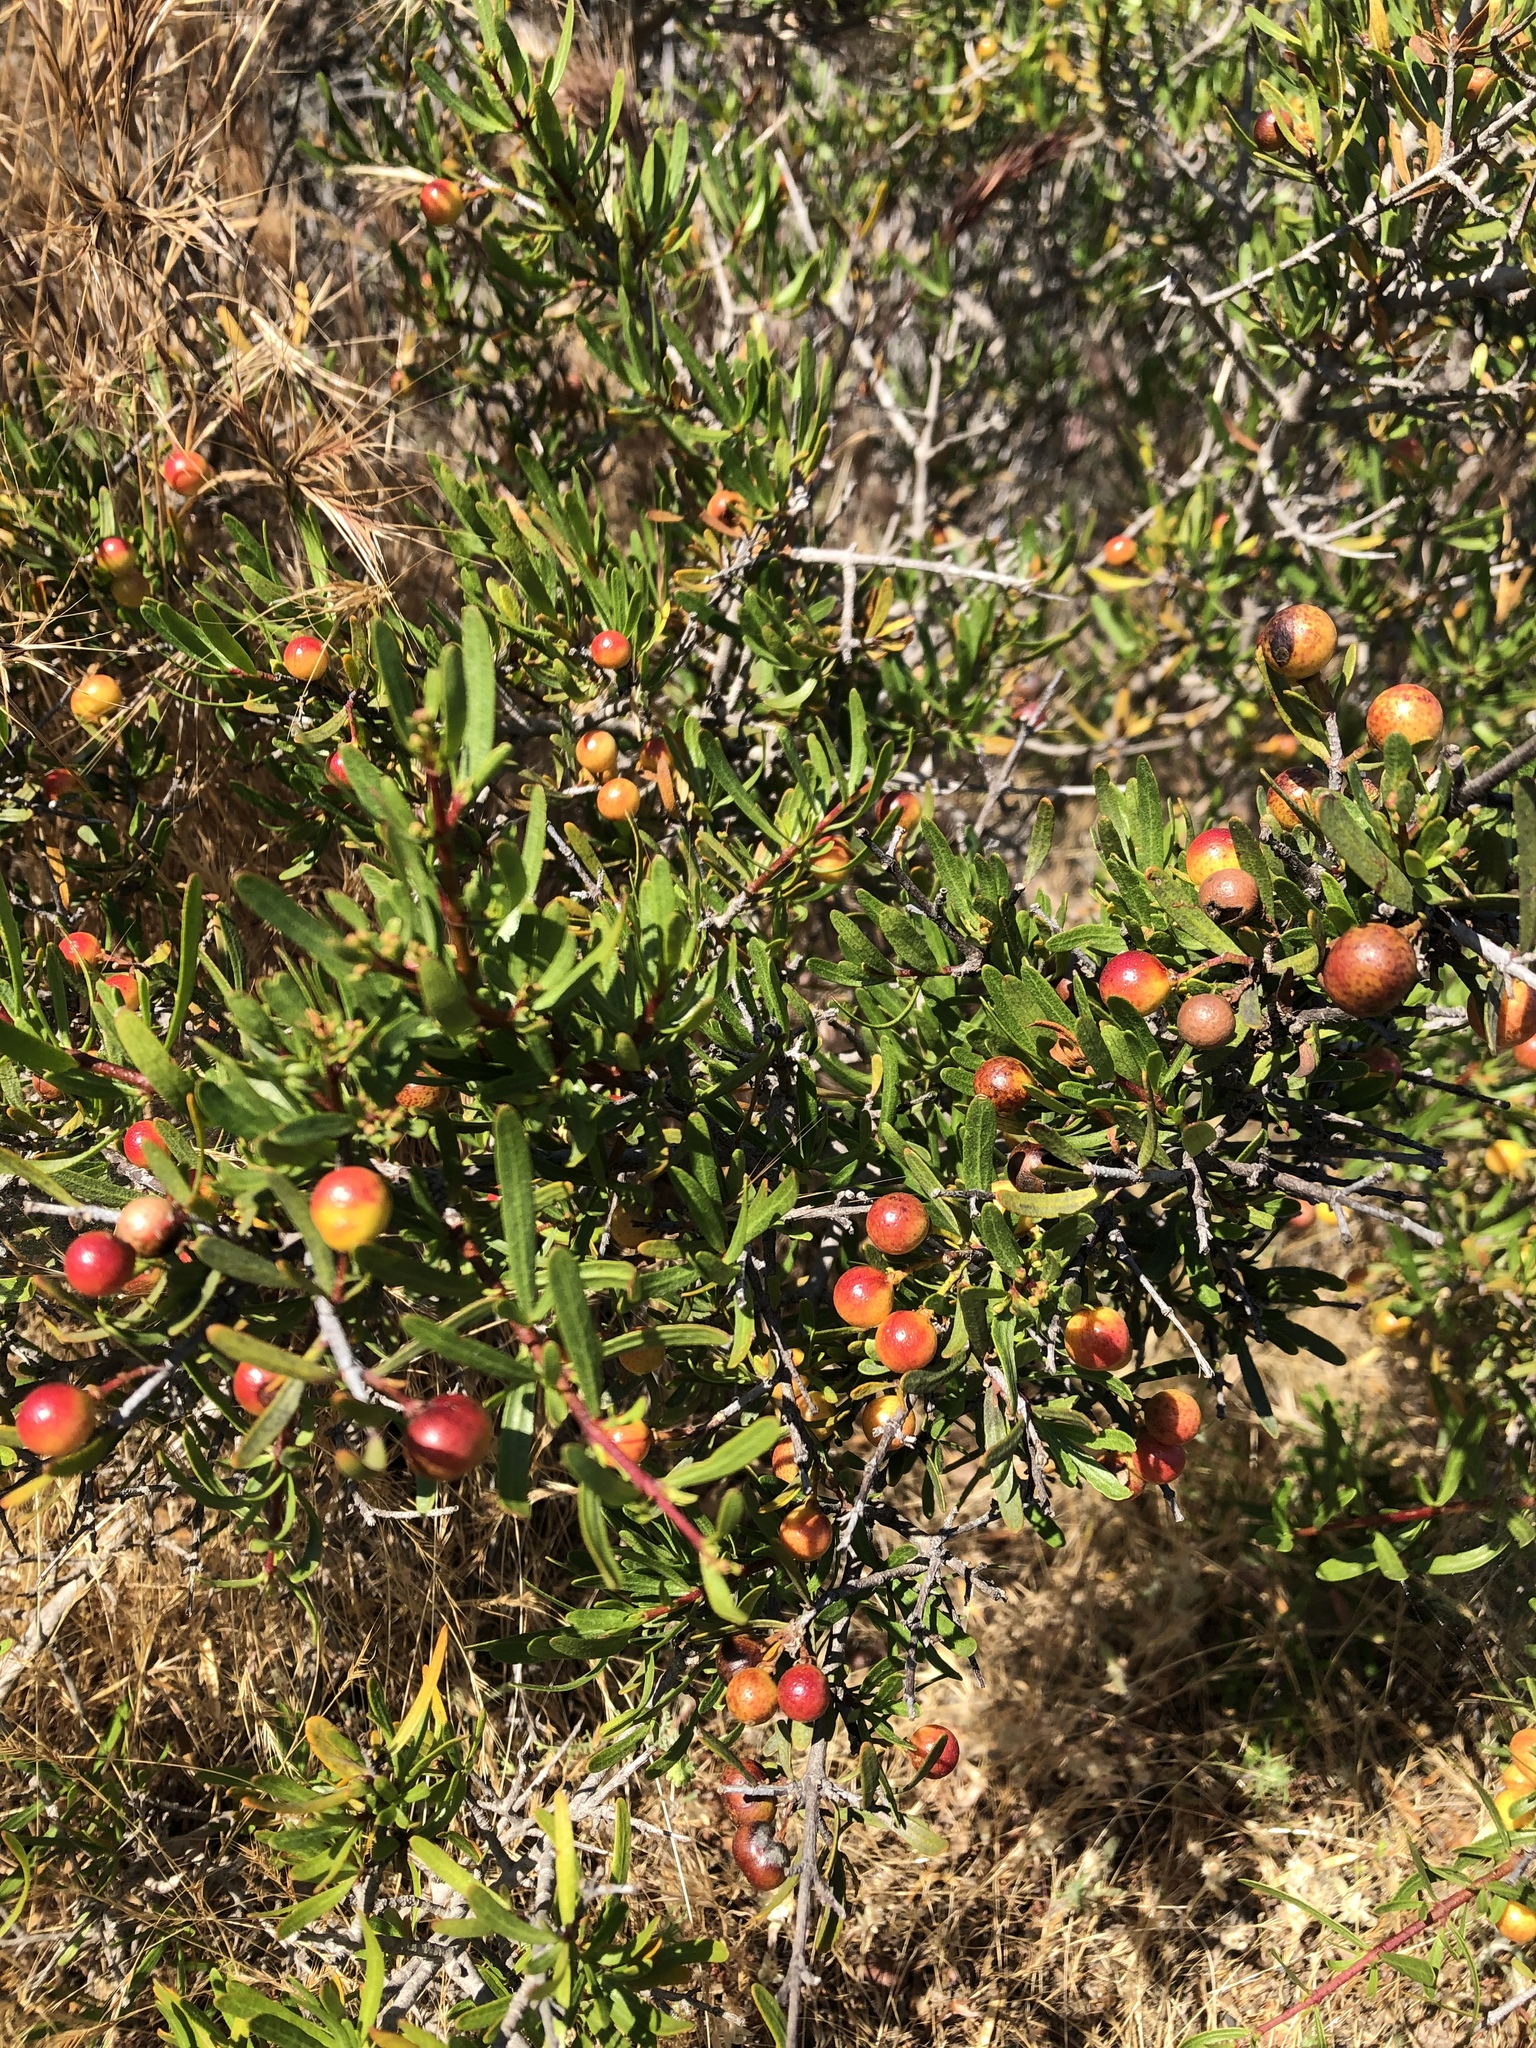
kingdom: Plantae
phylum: Tracheophyta
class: Magnoliopsida
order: Sapindales
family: Rutaceae
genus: Cneoridium
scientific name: Cneoridium dumosum
